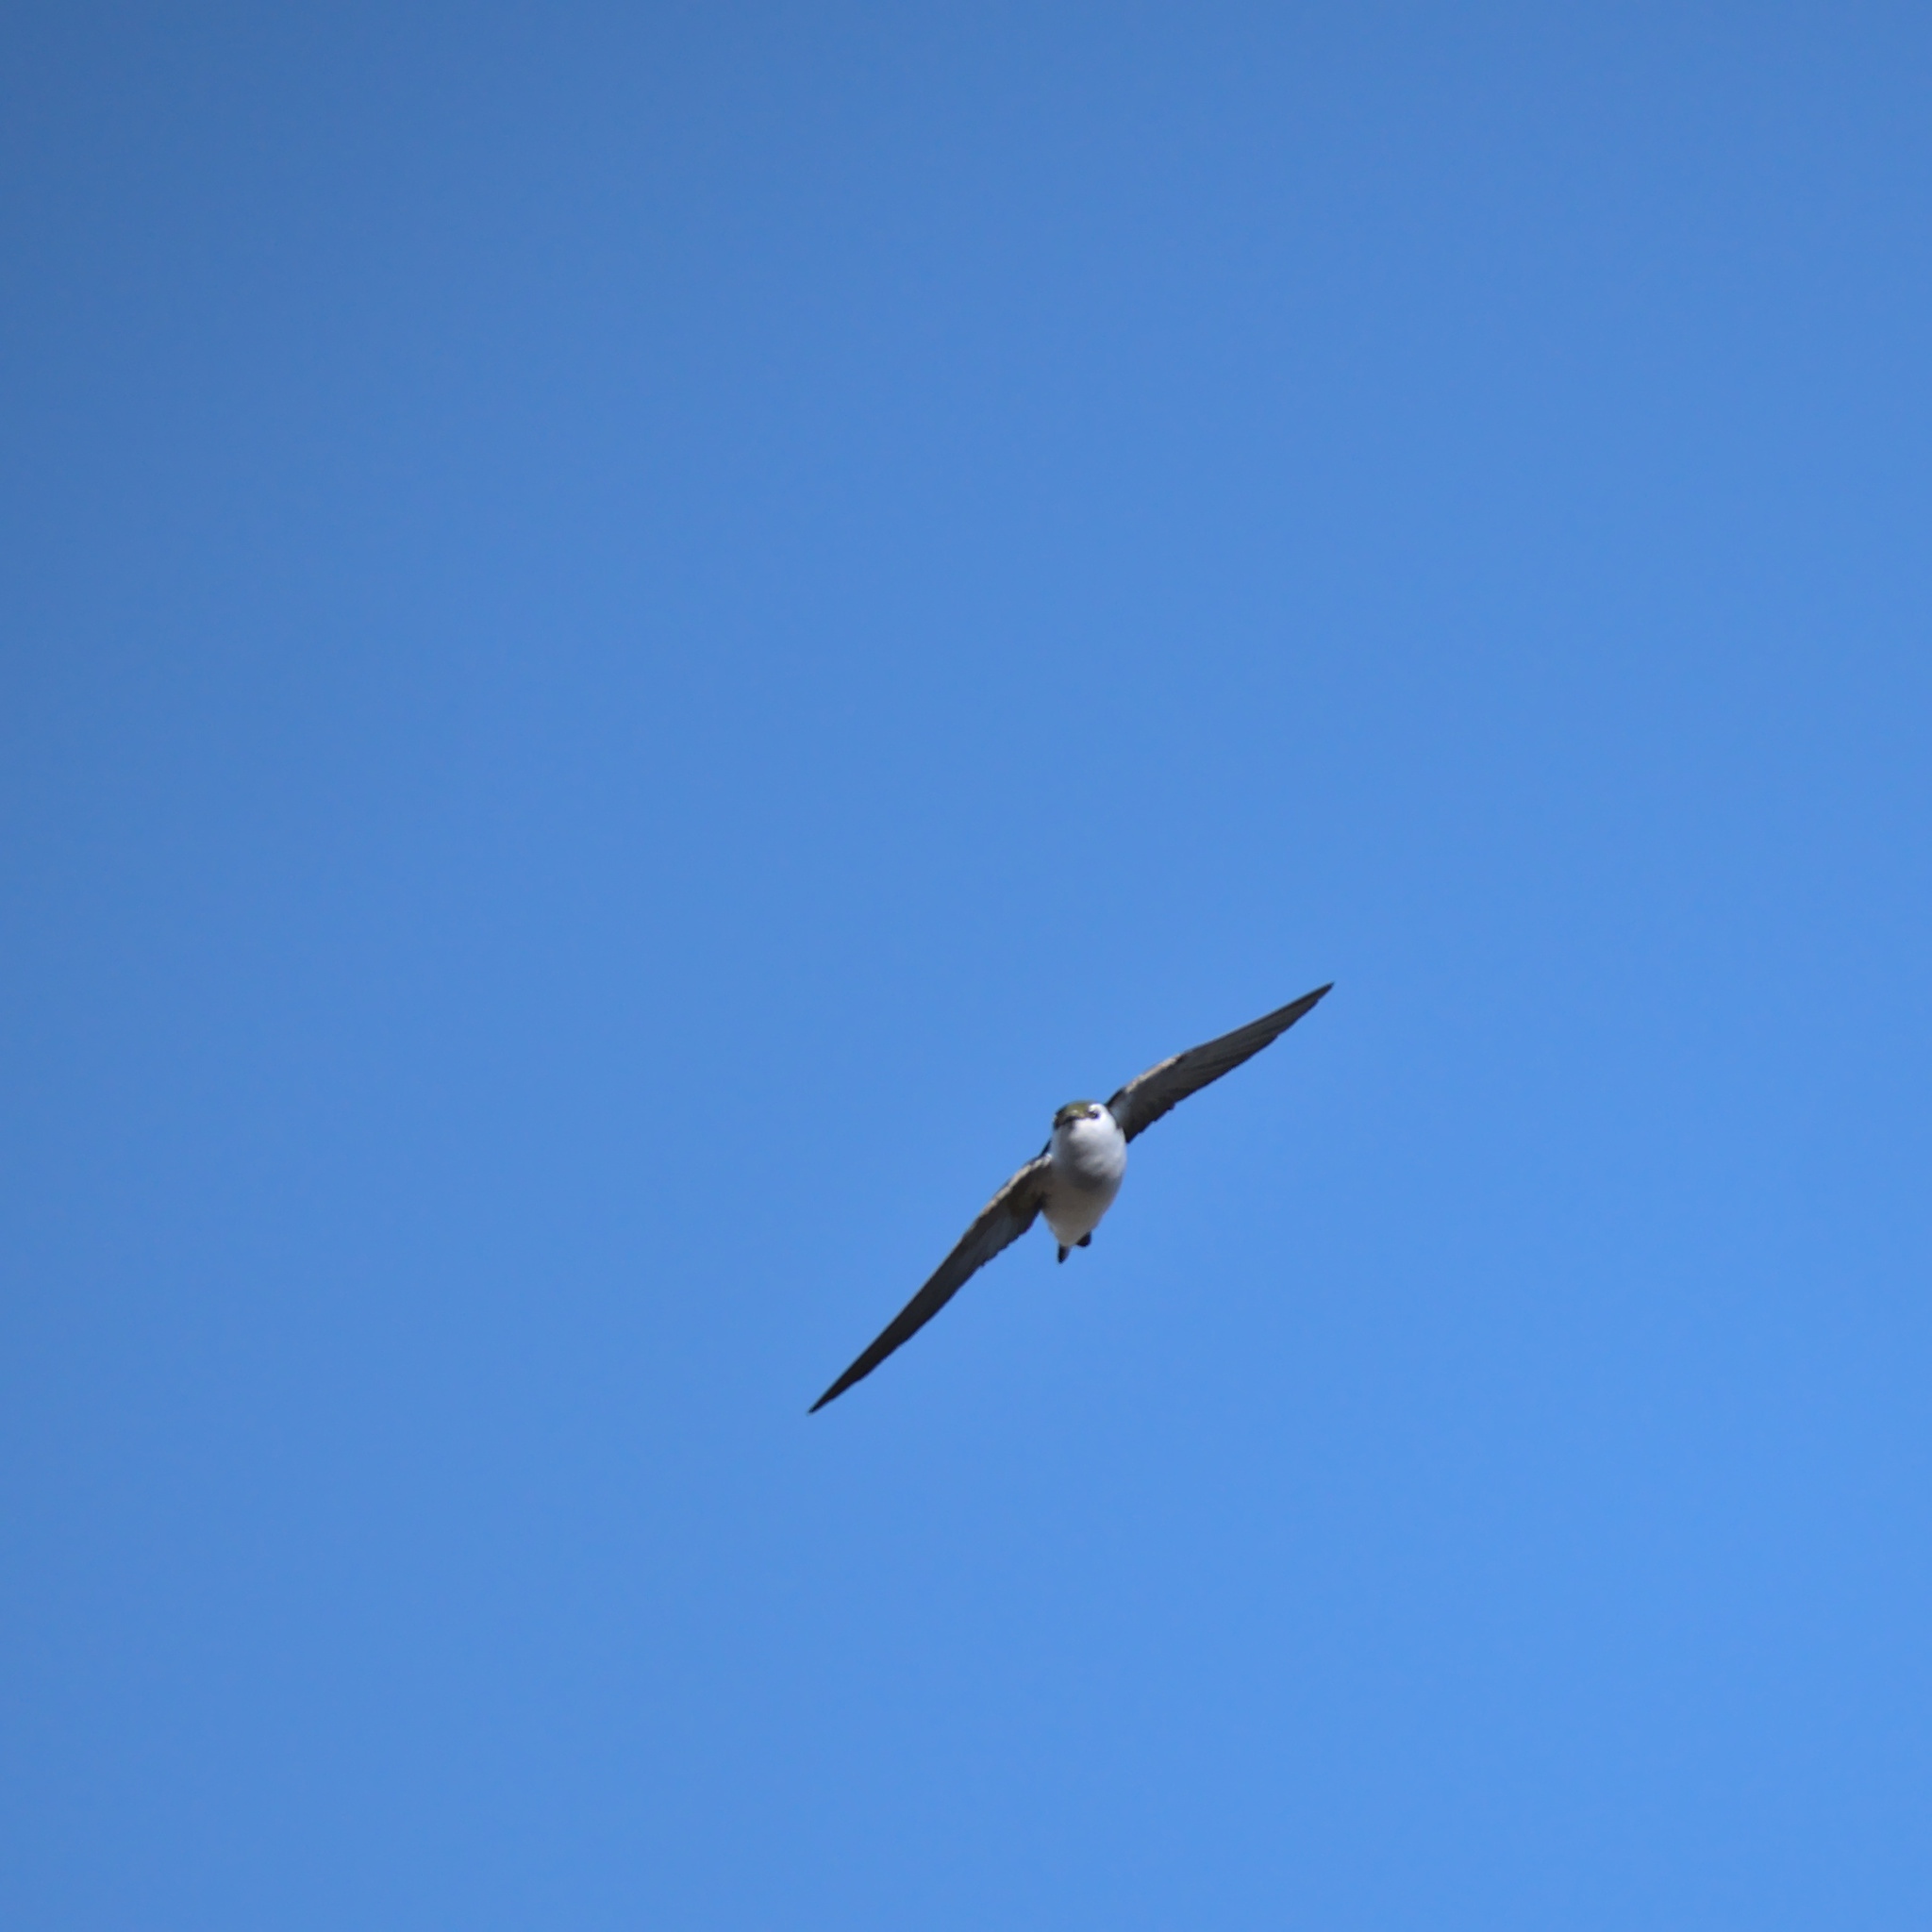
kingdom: Animalia
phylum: Chordata
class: Aves
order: Passeriformes
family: Hirundinidae
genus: Tachycineta
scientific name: Tachycineta thalassina
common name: Violet-green swallow
